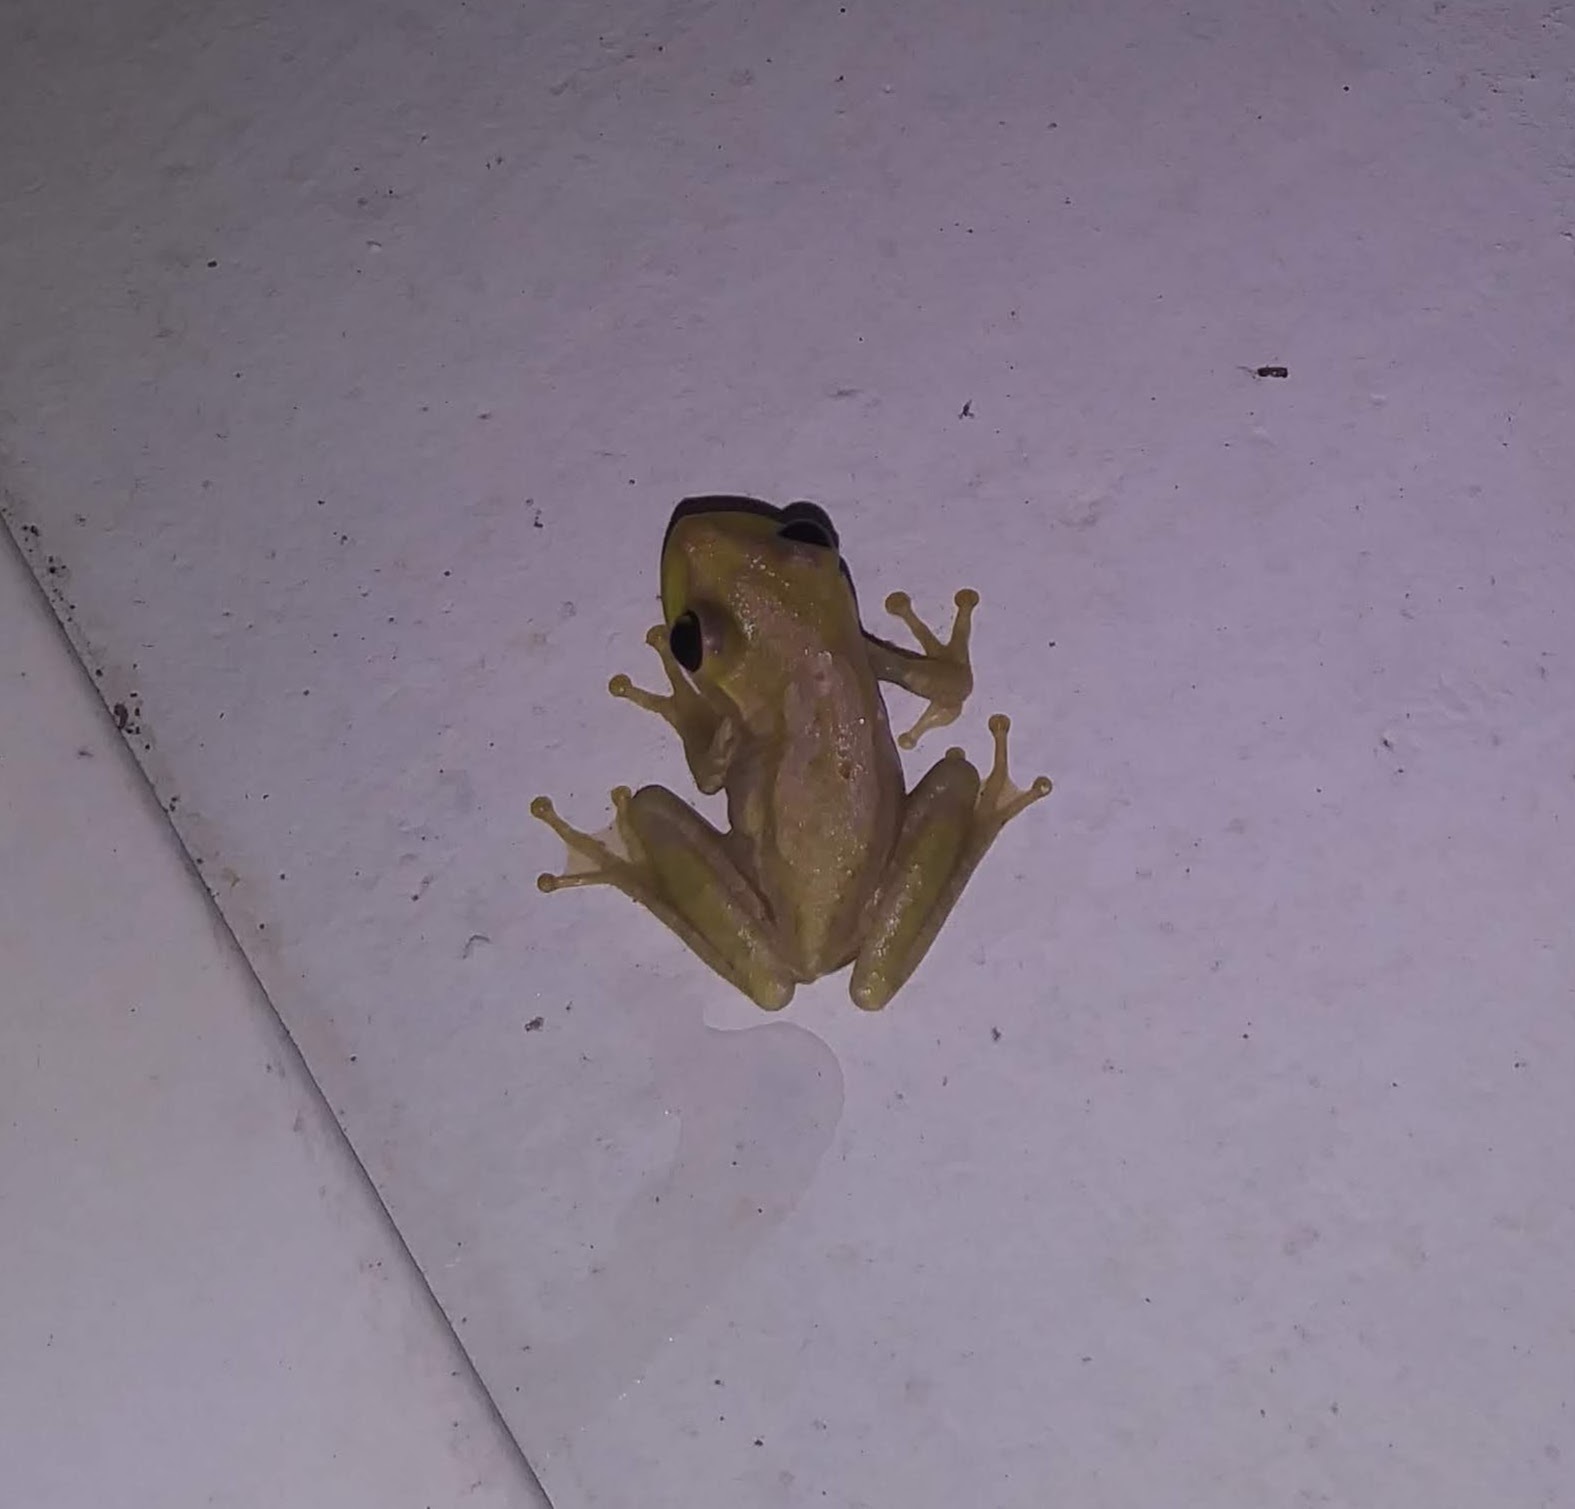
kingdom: Animalia
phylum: Chordata
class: Amphibia
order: Anura
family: Hylidae
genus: Osteopilus
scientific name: Osteopilus septentrionalis
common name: Cuban treefrog
